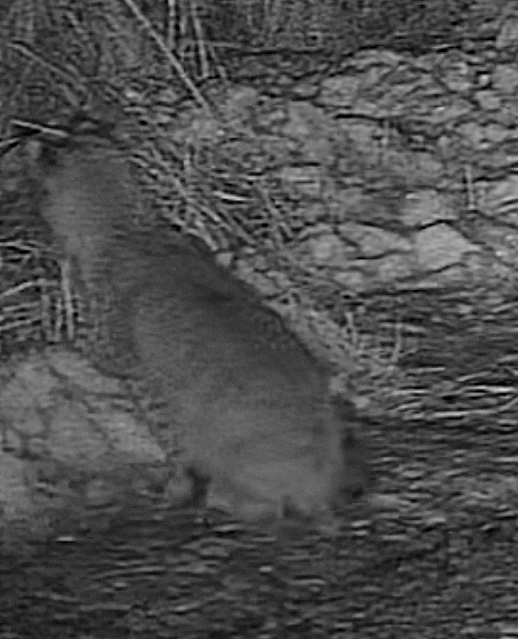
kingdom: Animalia
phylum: Chordata
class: Mammalia
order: Carnivora
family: Felidae
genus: Lynx
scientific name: Lynx rufus
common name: Bobcat
